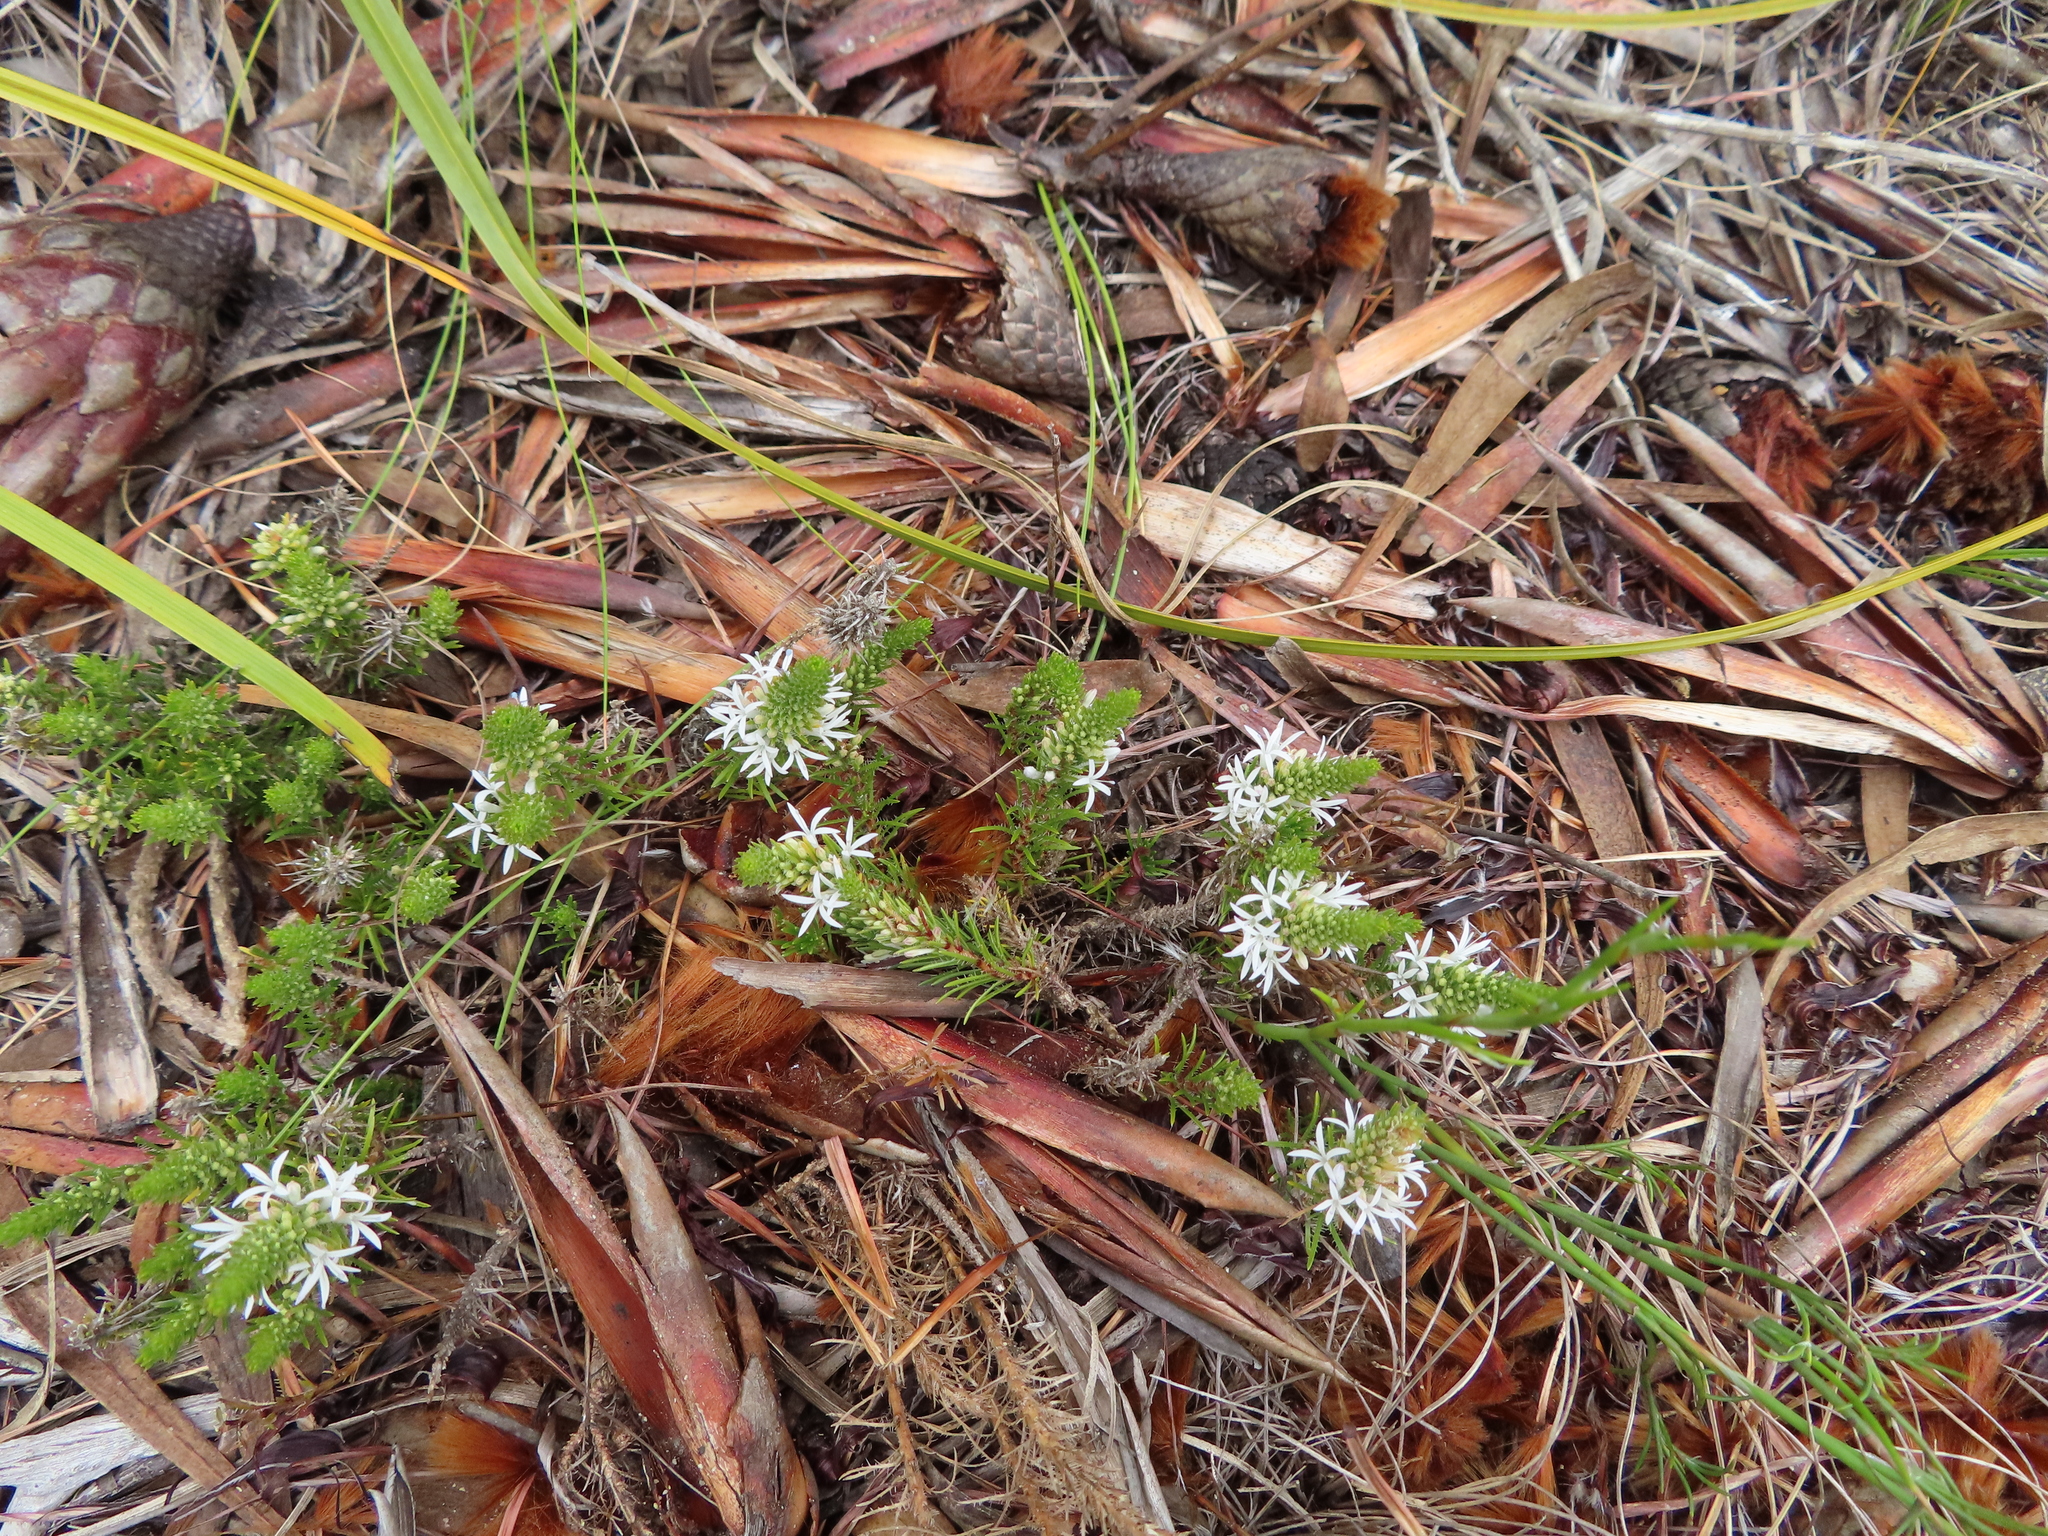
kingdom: Plantae
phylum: Tracheophyta
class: Magnoliopsida
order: Asterales
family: Campanulaceae
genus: Merciera
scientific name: Merciera leptoloba
